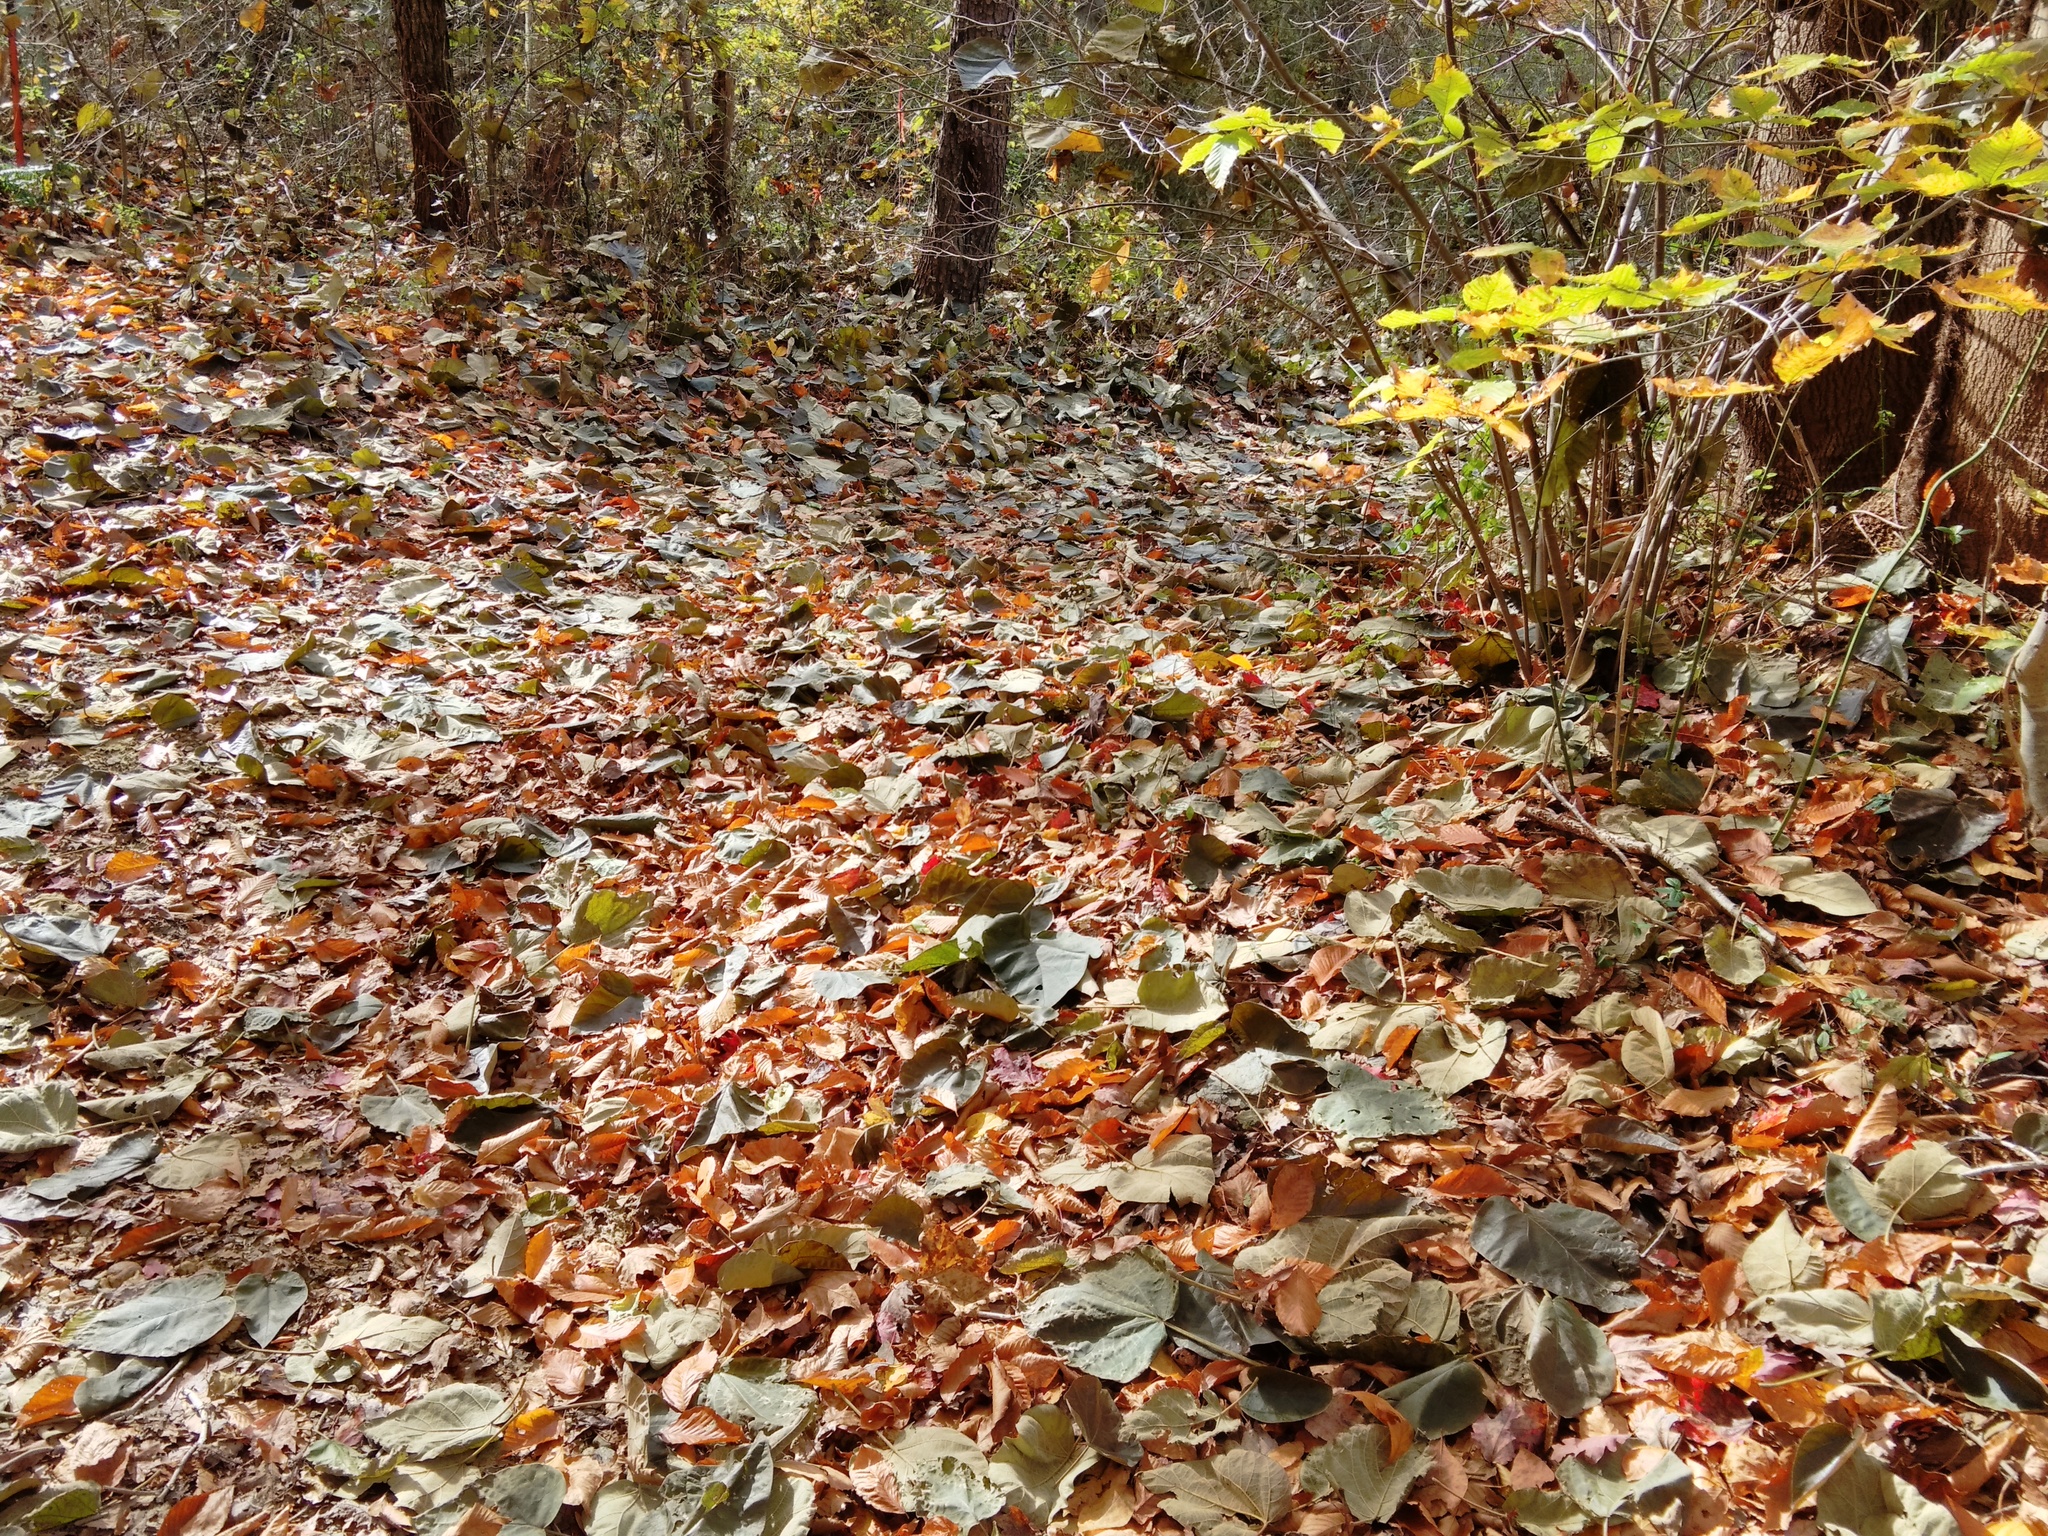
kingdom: Plantae
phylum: Tracheophyta
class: Magnoliopsida
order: Lamiales
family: Paulowniaceae
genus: Paulownia
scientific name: Paulownia tomentosa
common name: Foxglove-tree
